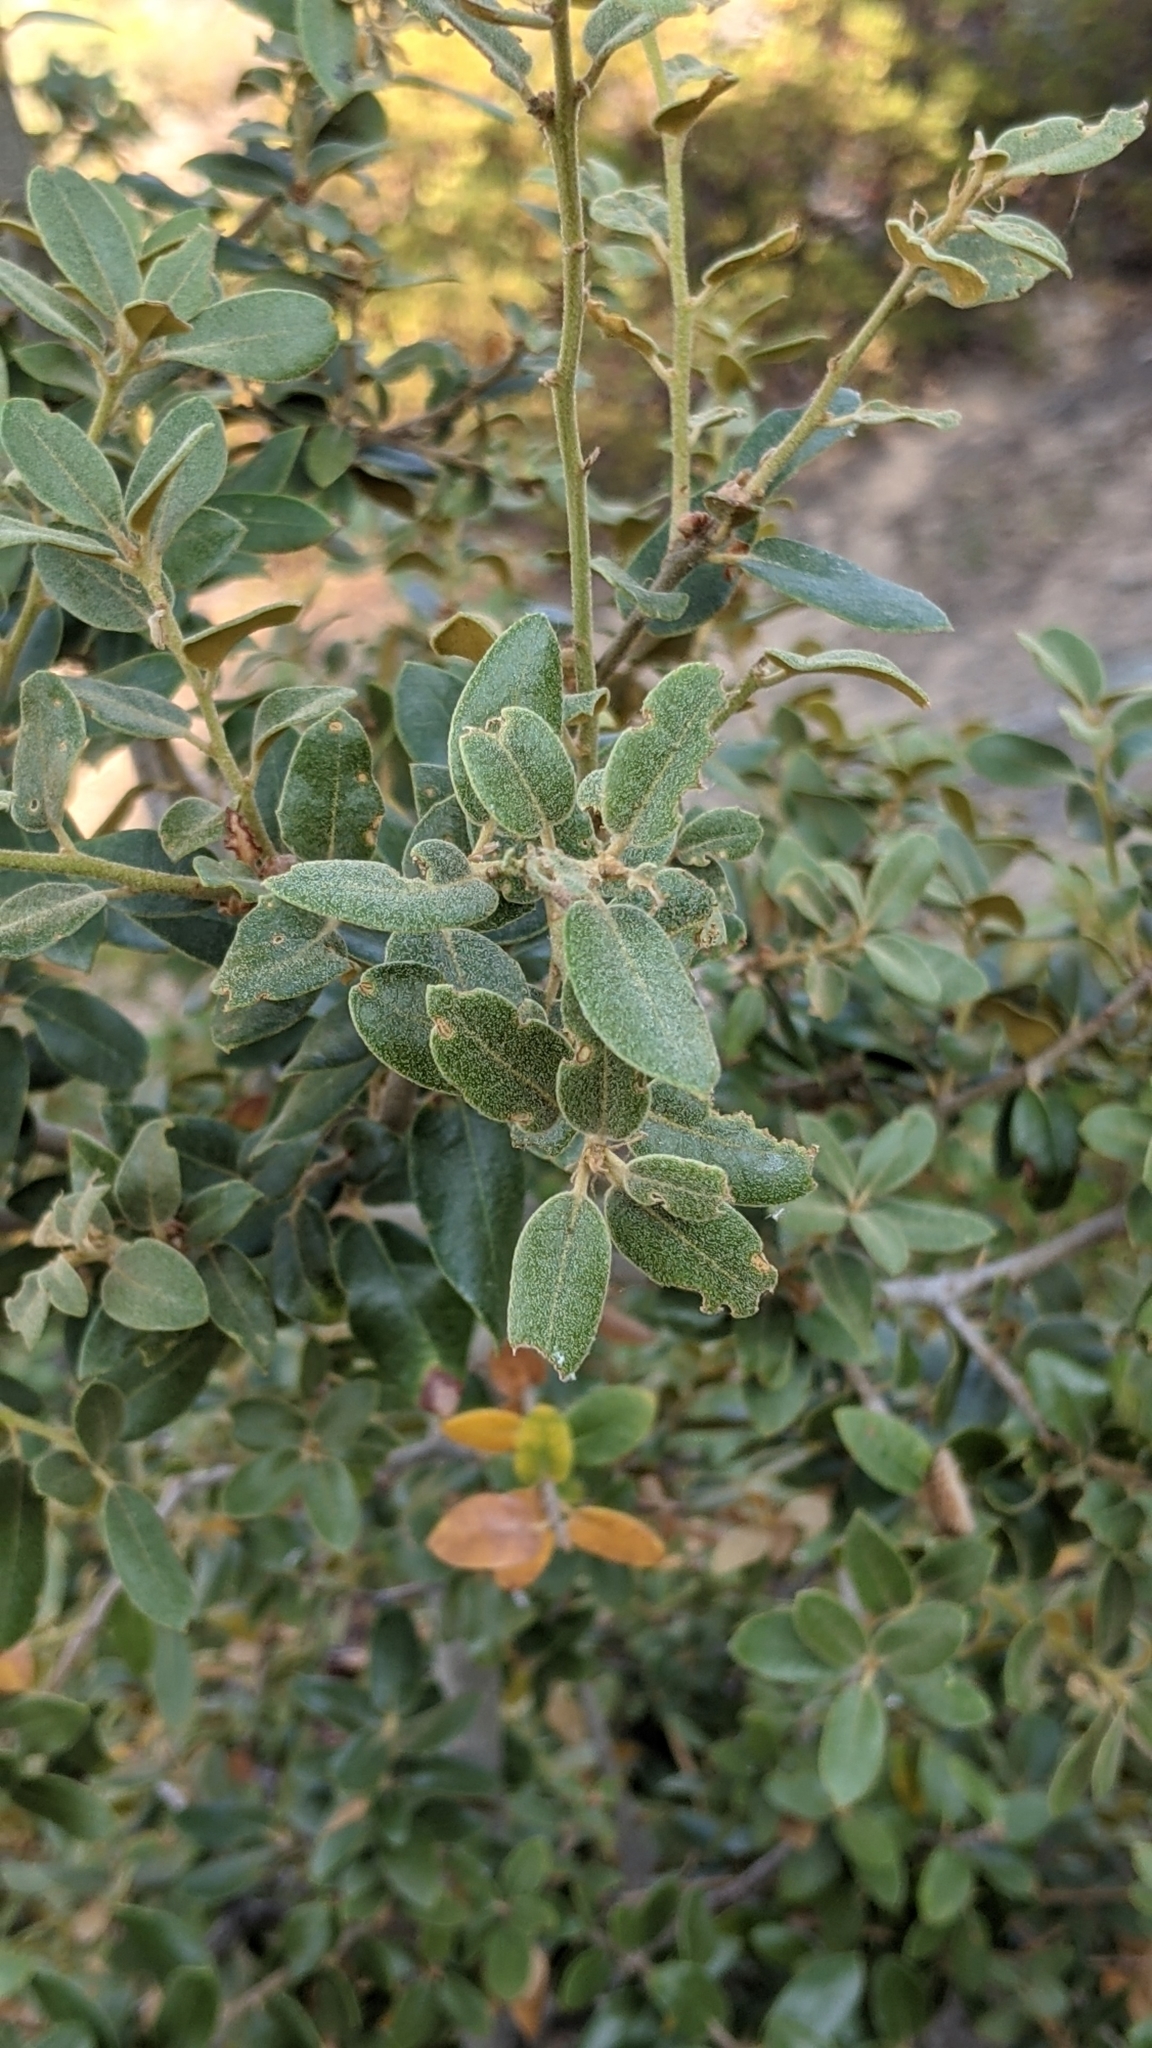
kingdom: Plantae
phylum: Tracheophyta
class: Magnoliopsida
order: Fagales
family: Fagaceae
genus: Quercus
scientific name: Quercus chrysolepis
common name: Canyon live oak
